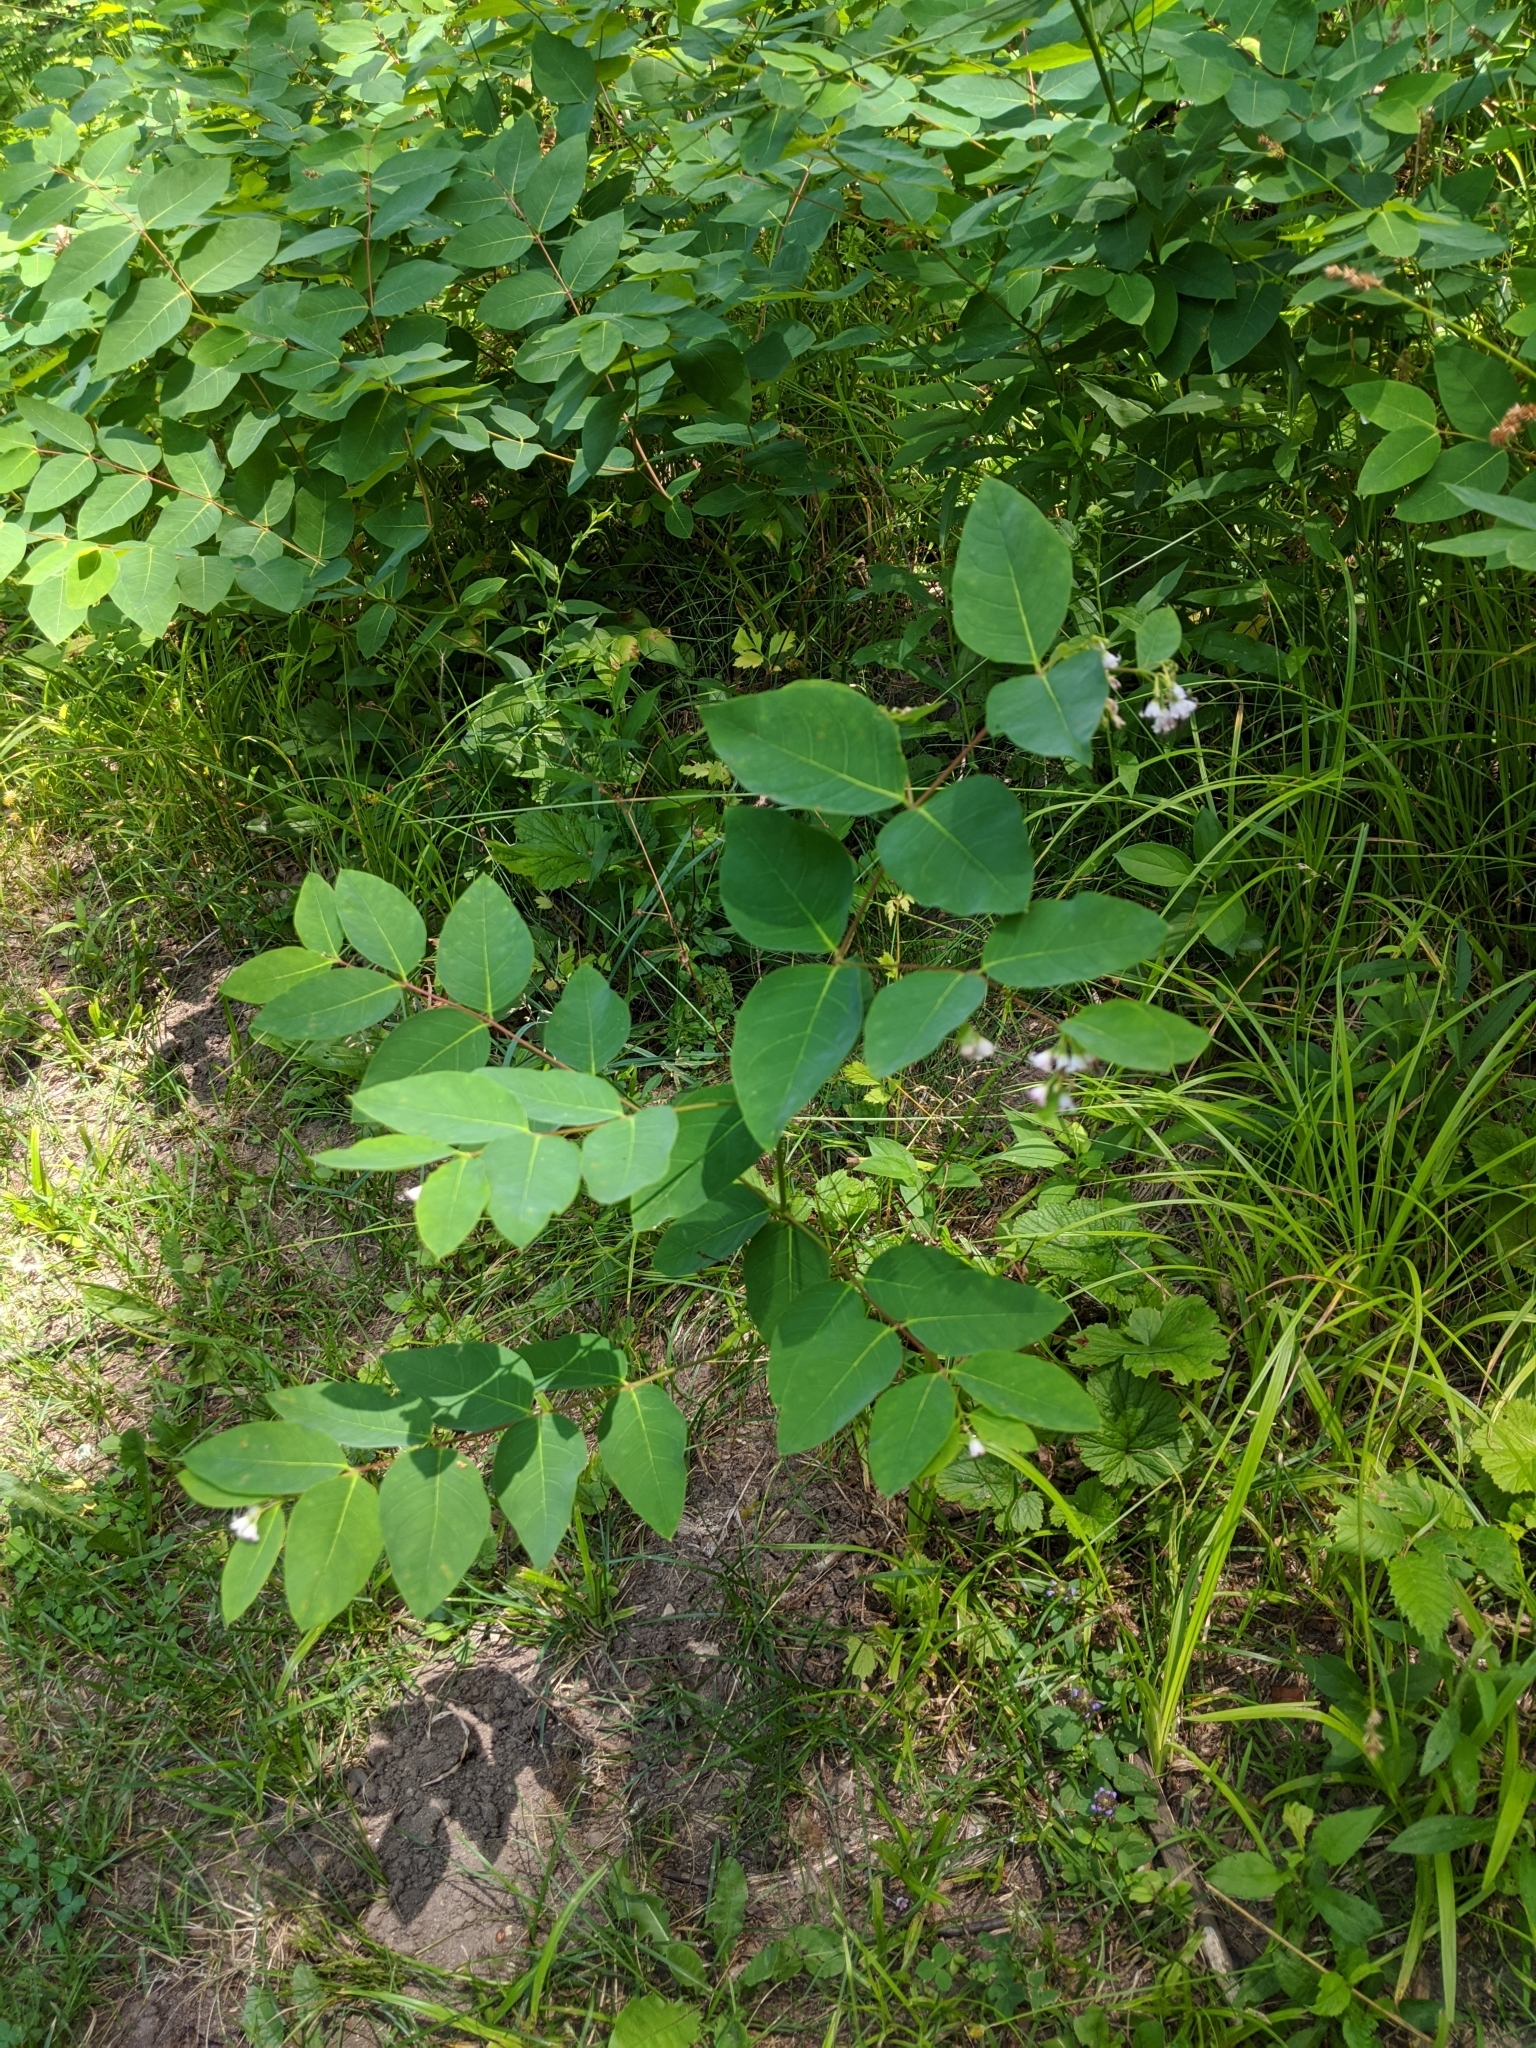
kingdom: Plantae
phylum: Tracheophyta
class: Magnoliopsida
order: Gentianales
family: Apocynaceae
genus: Apocynum
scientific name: Apocynum androsaemifolium
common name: Spreading dogbane
